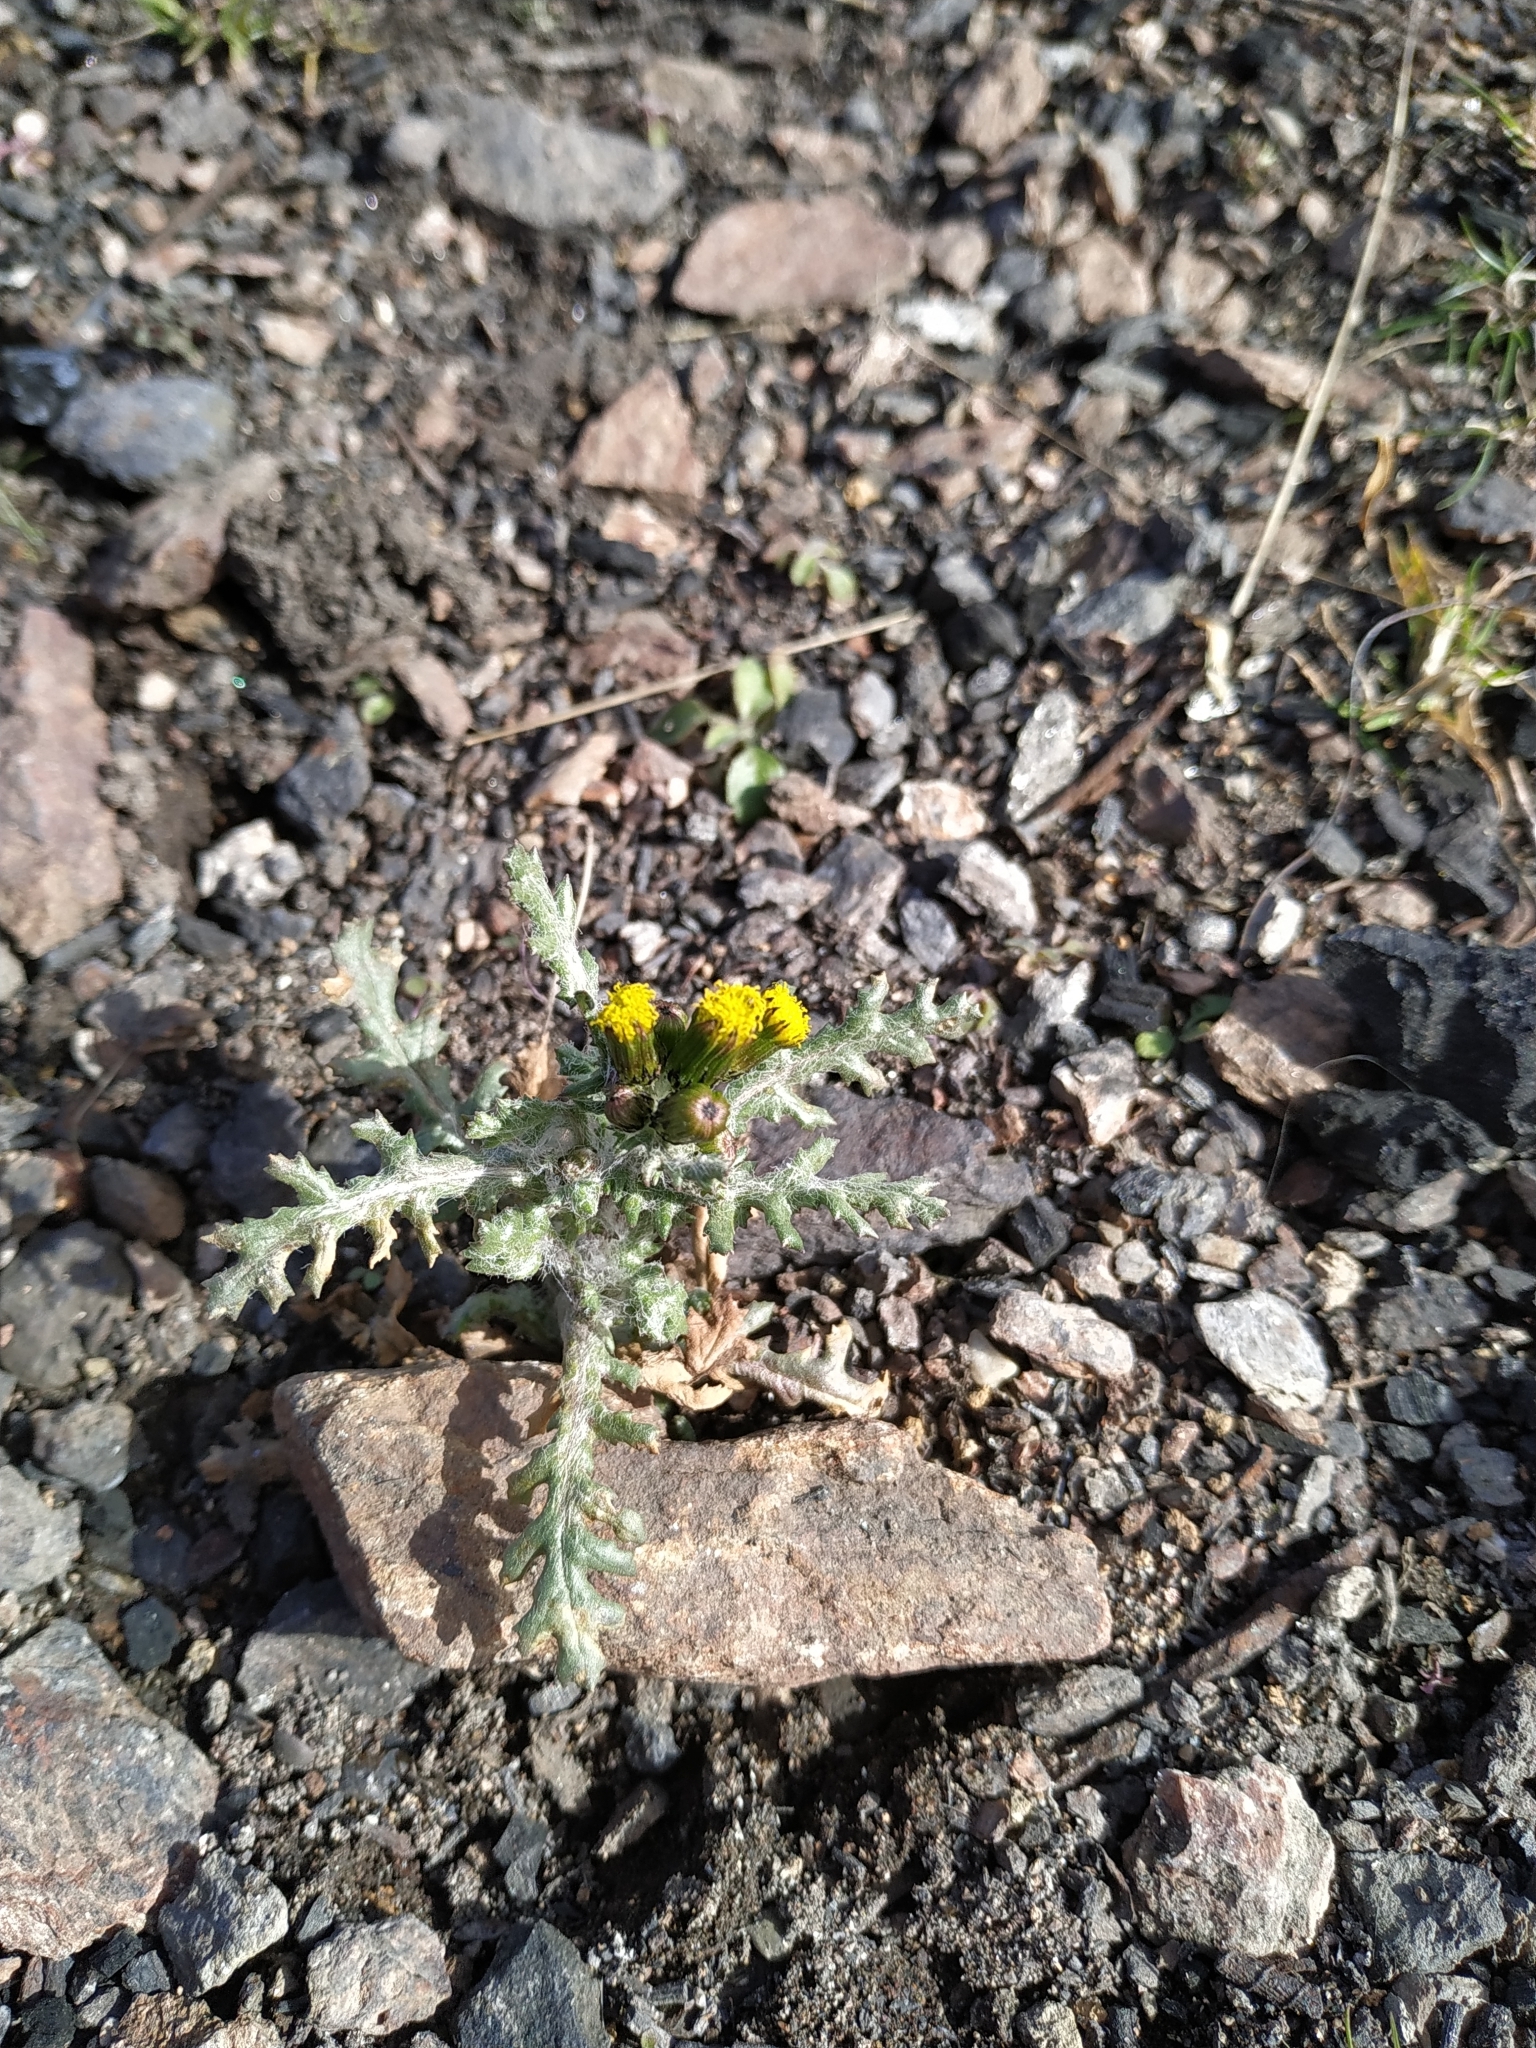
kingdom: Plantae
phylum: Tracheophyta
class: Magnoliopsida
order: Asterales
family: Asteraceae
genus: Senecio
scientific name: Senecio vulgaris
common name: Old-man-in-the-spring
